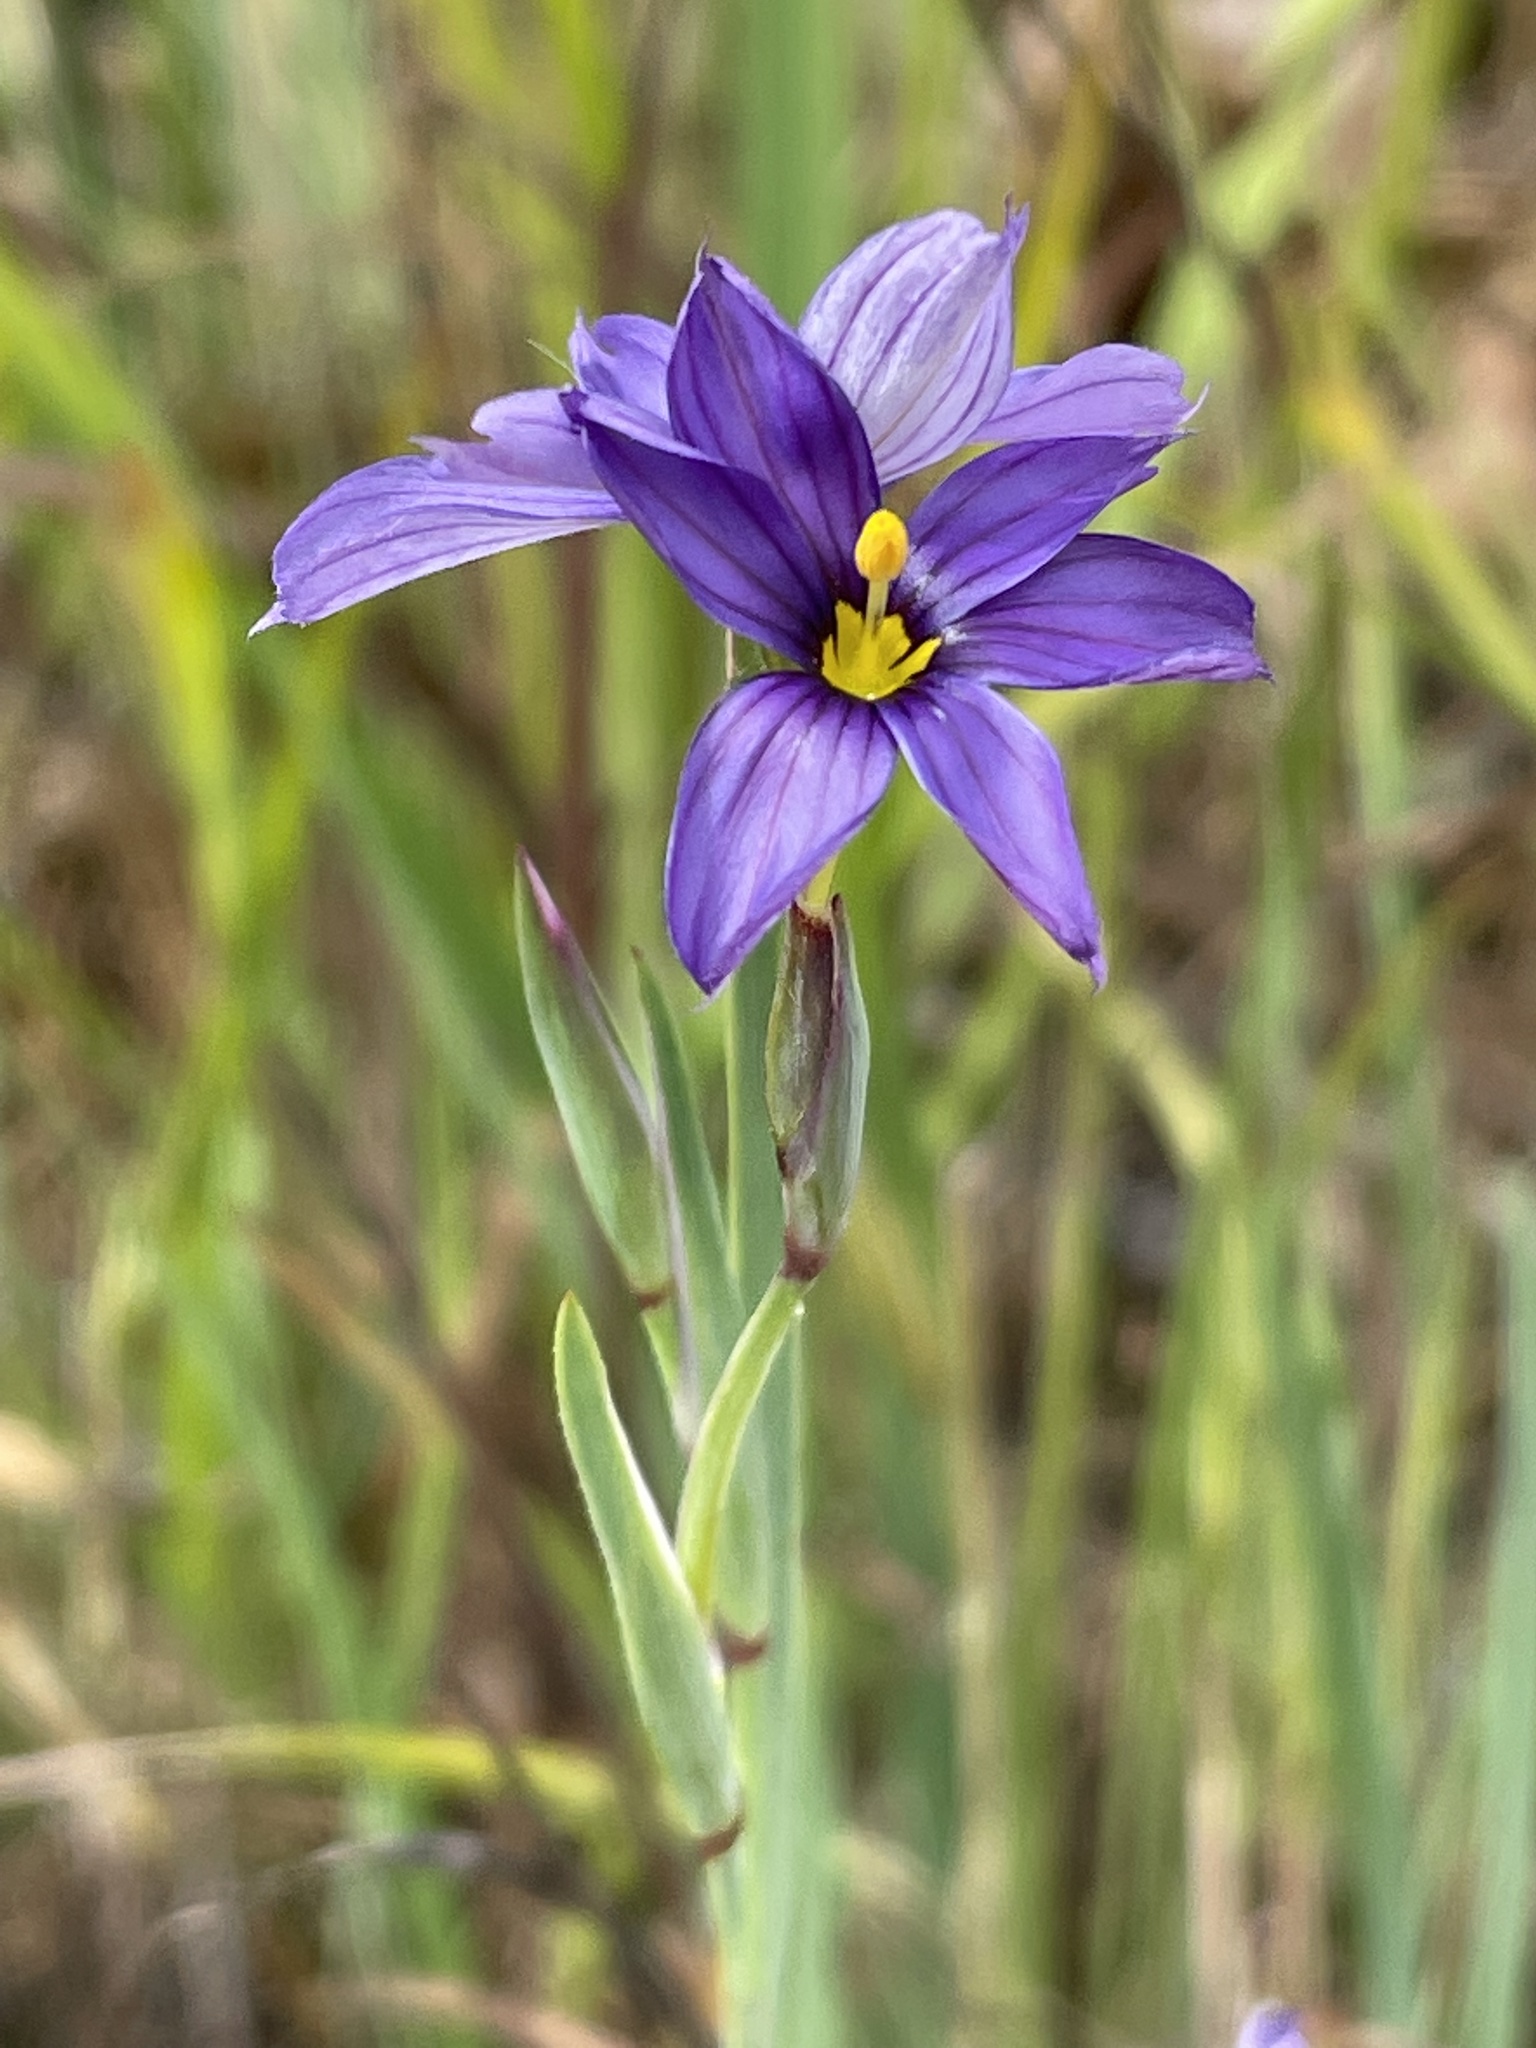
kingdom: Plantae
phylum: Tracheophyta
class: Liliopsida
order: Asparagales
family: Iridaceae
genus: Sisyrinchium
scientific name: Sisyrinchium bellum
